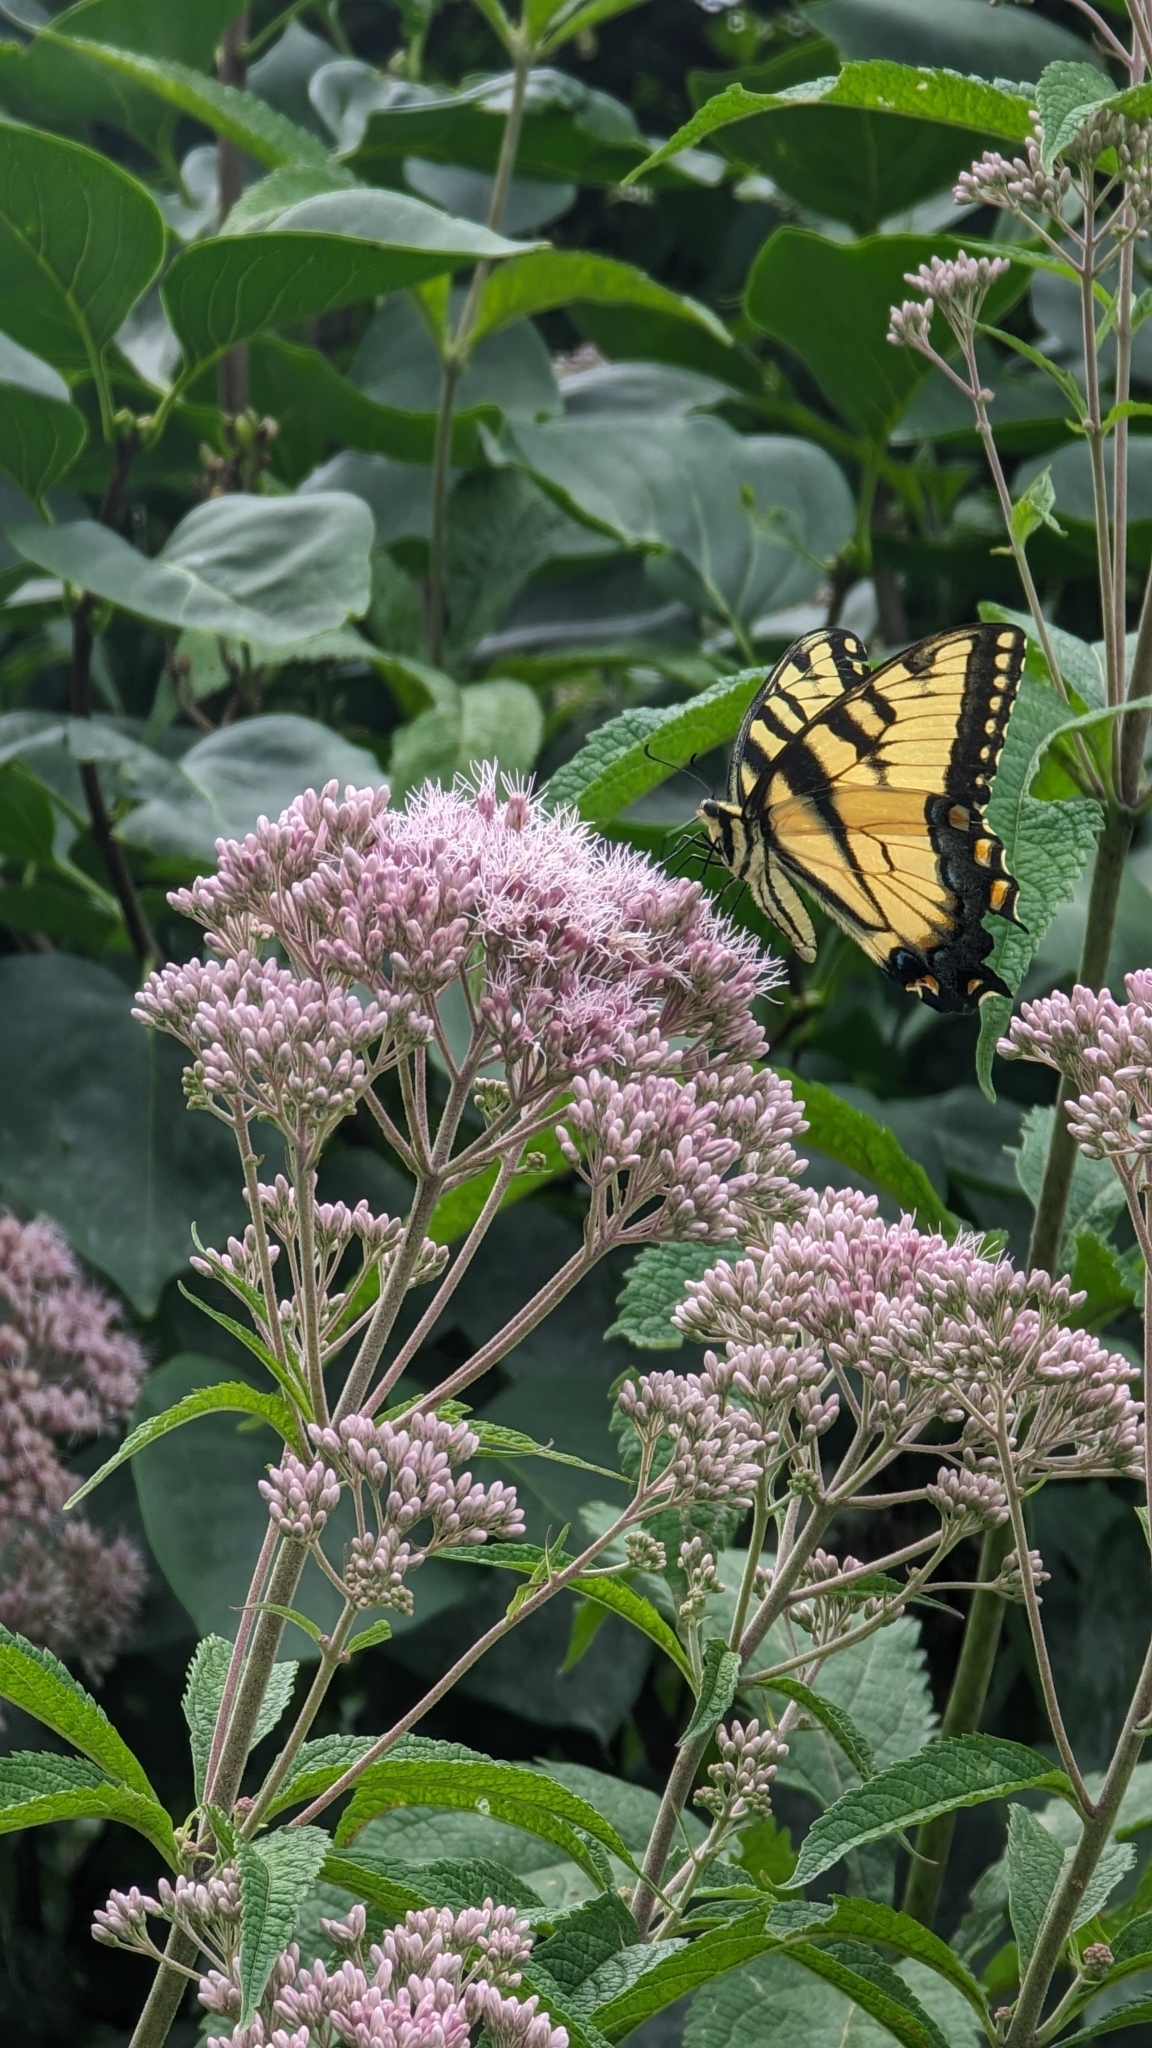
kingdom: Animalia
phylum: Arthropoda
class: Insecta
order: Lepidoptera
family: Papilionidae
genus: Papilio
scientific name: Papilio glaucus
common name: Tiger swallowtail
